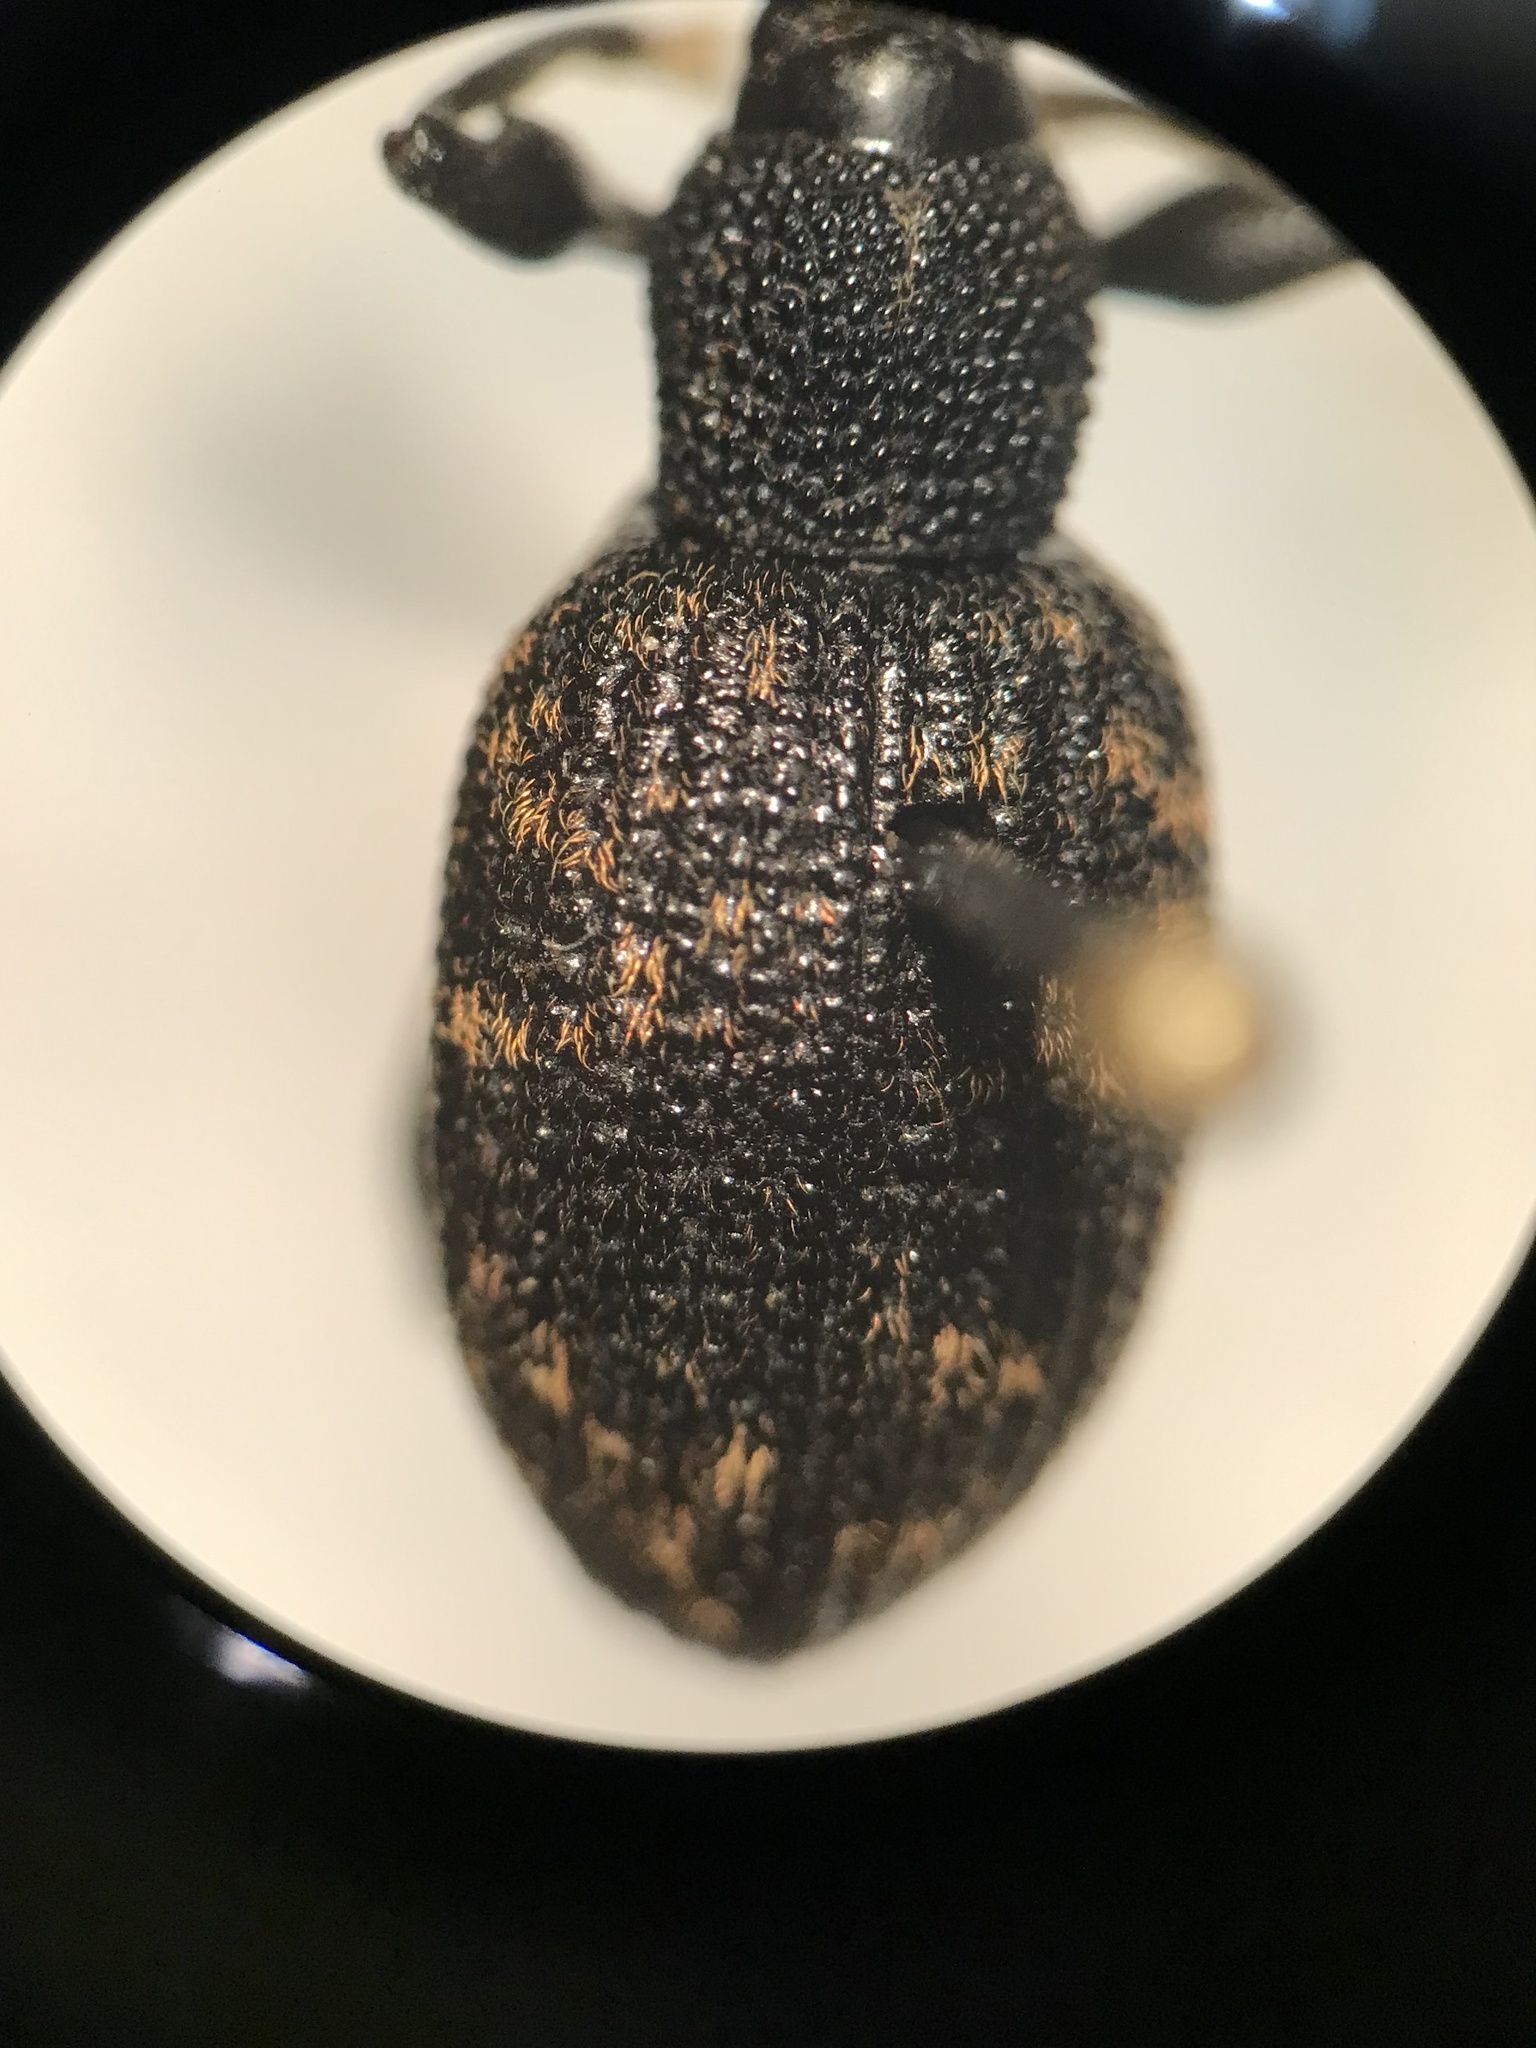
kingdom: Animalia
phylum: Arthropoda
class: Insecta
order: Coleoptera
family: Curculionidae
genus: Otiorhynchus
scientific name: Otiorhynchus sulcatus
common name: Black vine weevil
